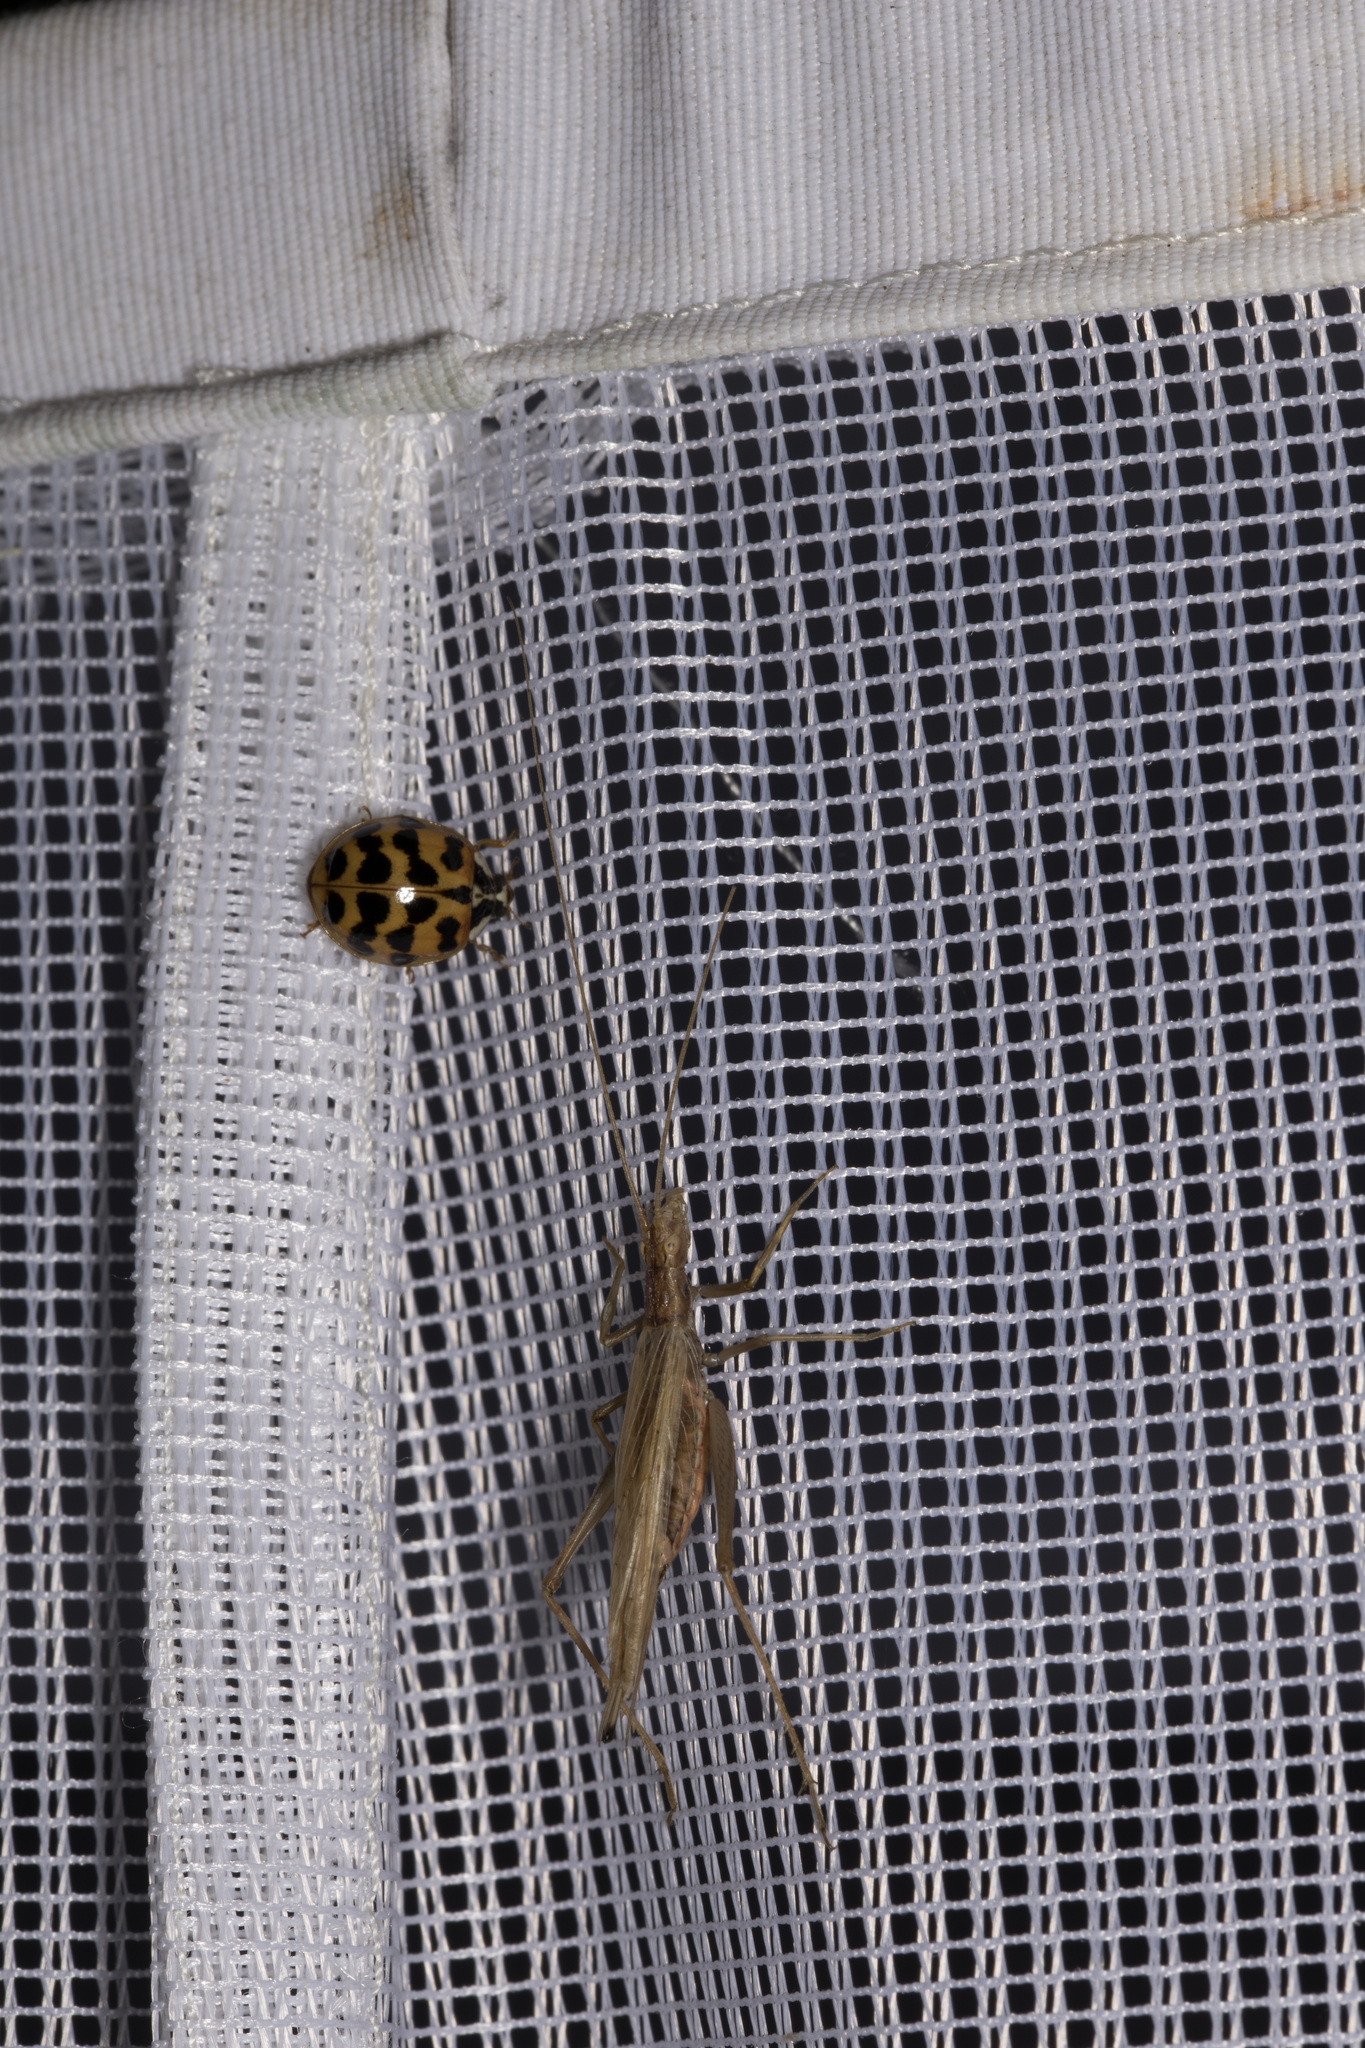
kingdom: Animalia
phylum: Arthropoda
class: Insecta
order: Orthoptera
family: Gryllidae
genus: Oecanthus
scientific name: Oecanthus pellucens
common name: Tree-cricket
